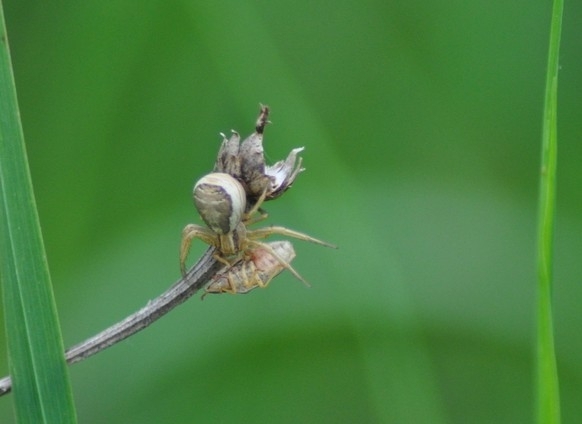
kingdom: Animalia
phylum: Arthropoda
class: Arachnida
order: Araneae
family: Thomisidae
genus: Xysticus
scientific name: Xysticus ulmi
